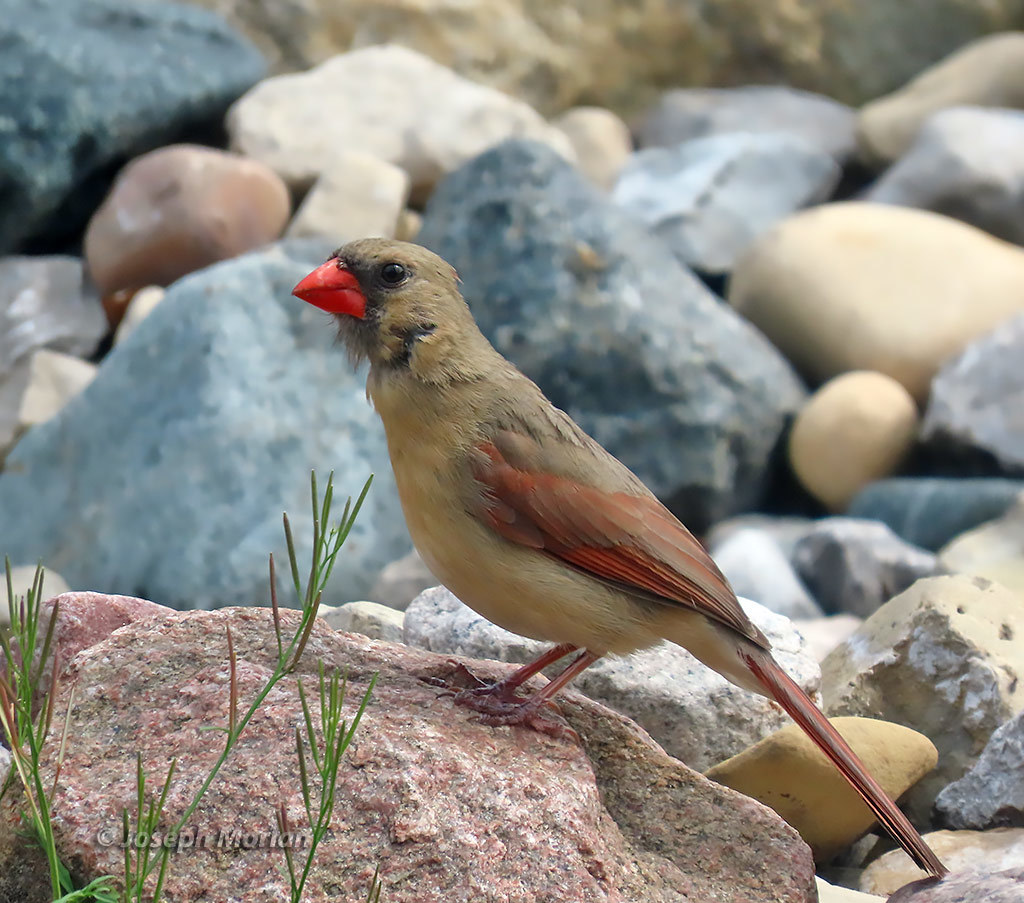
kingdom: Animalia
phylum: Chordata
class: Aves
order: Passeriformes
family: Cardinalidae
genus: Cardinalis
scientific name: Cardinalis cardinalis
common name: Northern cardinal
